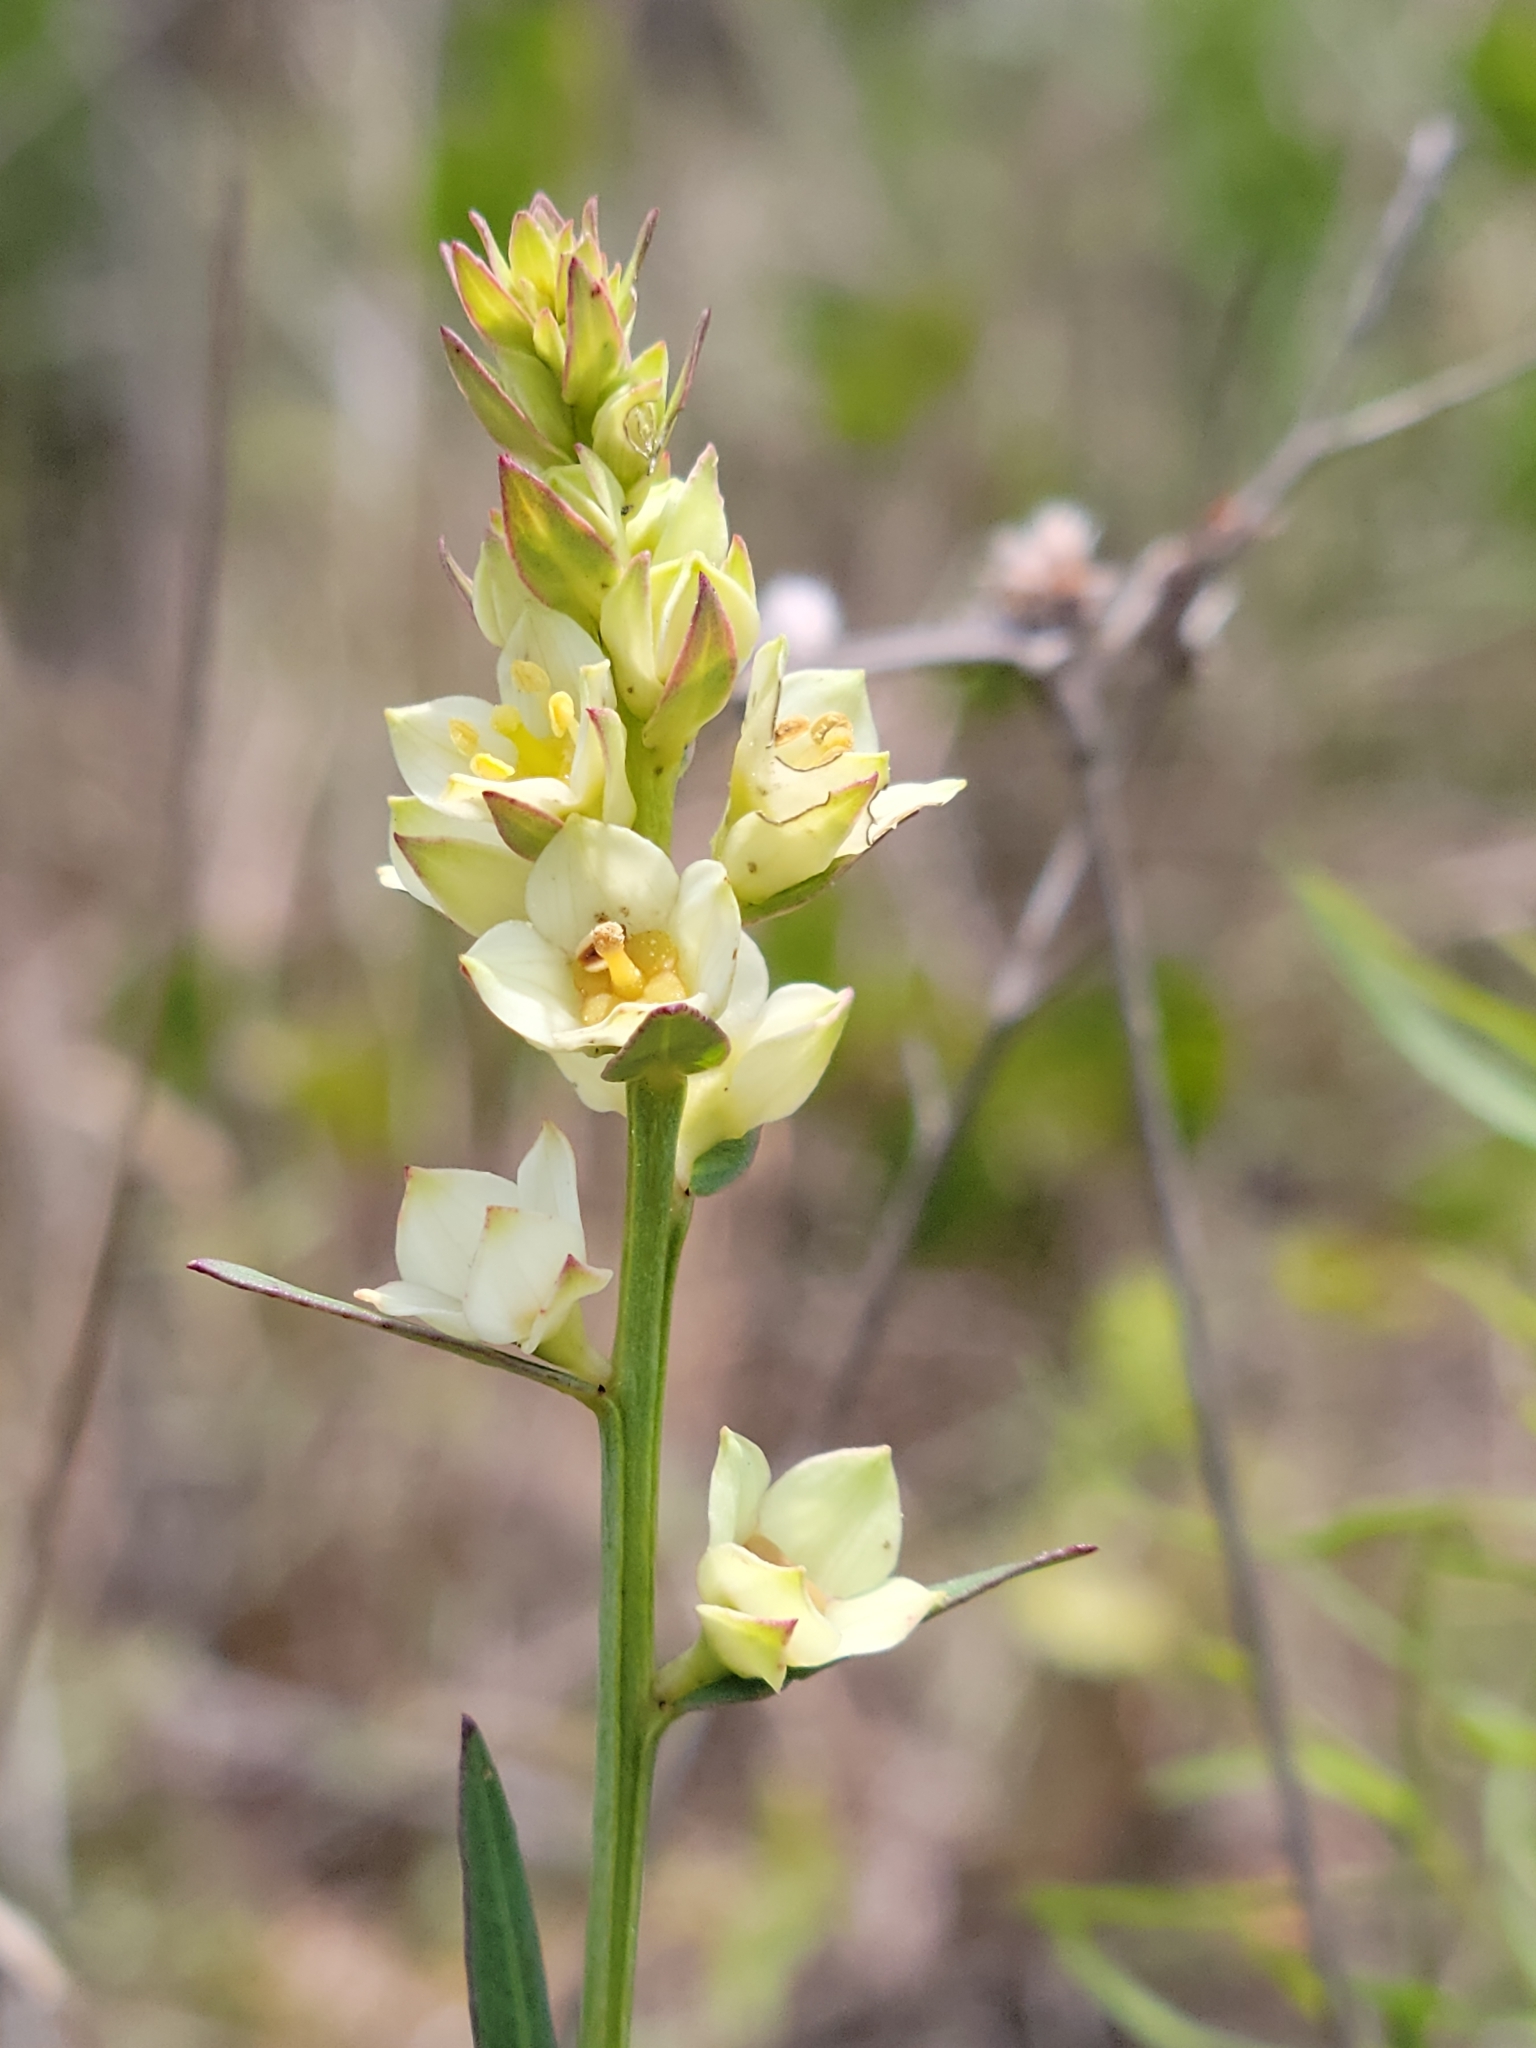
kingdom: Plantae
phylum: Tracheophyta
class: Magnoliopsida
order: Myrtales
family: Onagraceae
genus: Ludwigia
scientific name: Ludwigia suffruticosa
